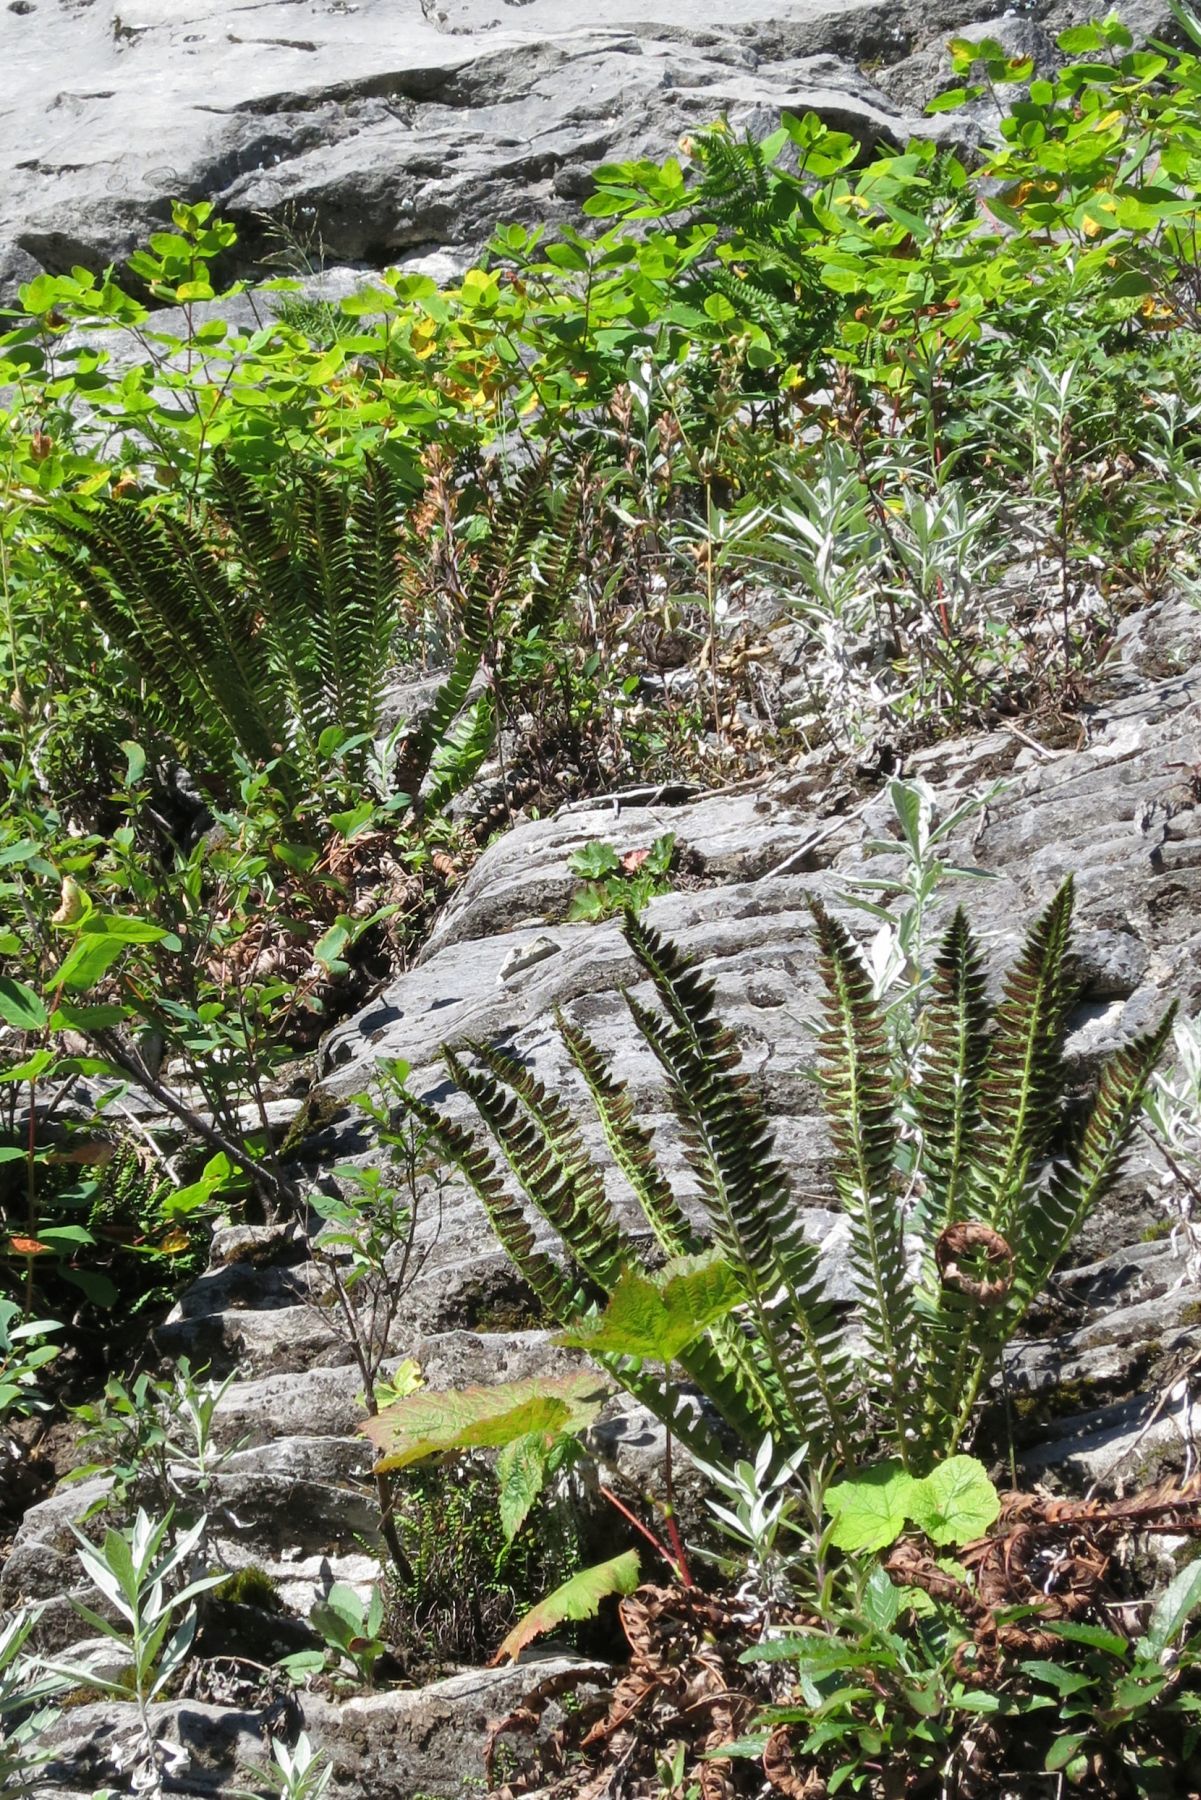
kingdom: Plantae
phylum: Tracheophyta
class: Polypodiopsida
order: Polypodiales
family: Dryopteridaceae
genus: Polystichum
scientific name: Polystichum lonchitis
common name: Holly fern
